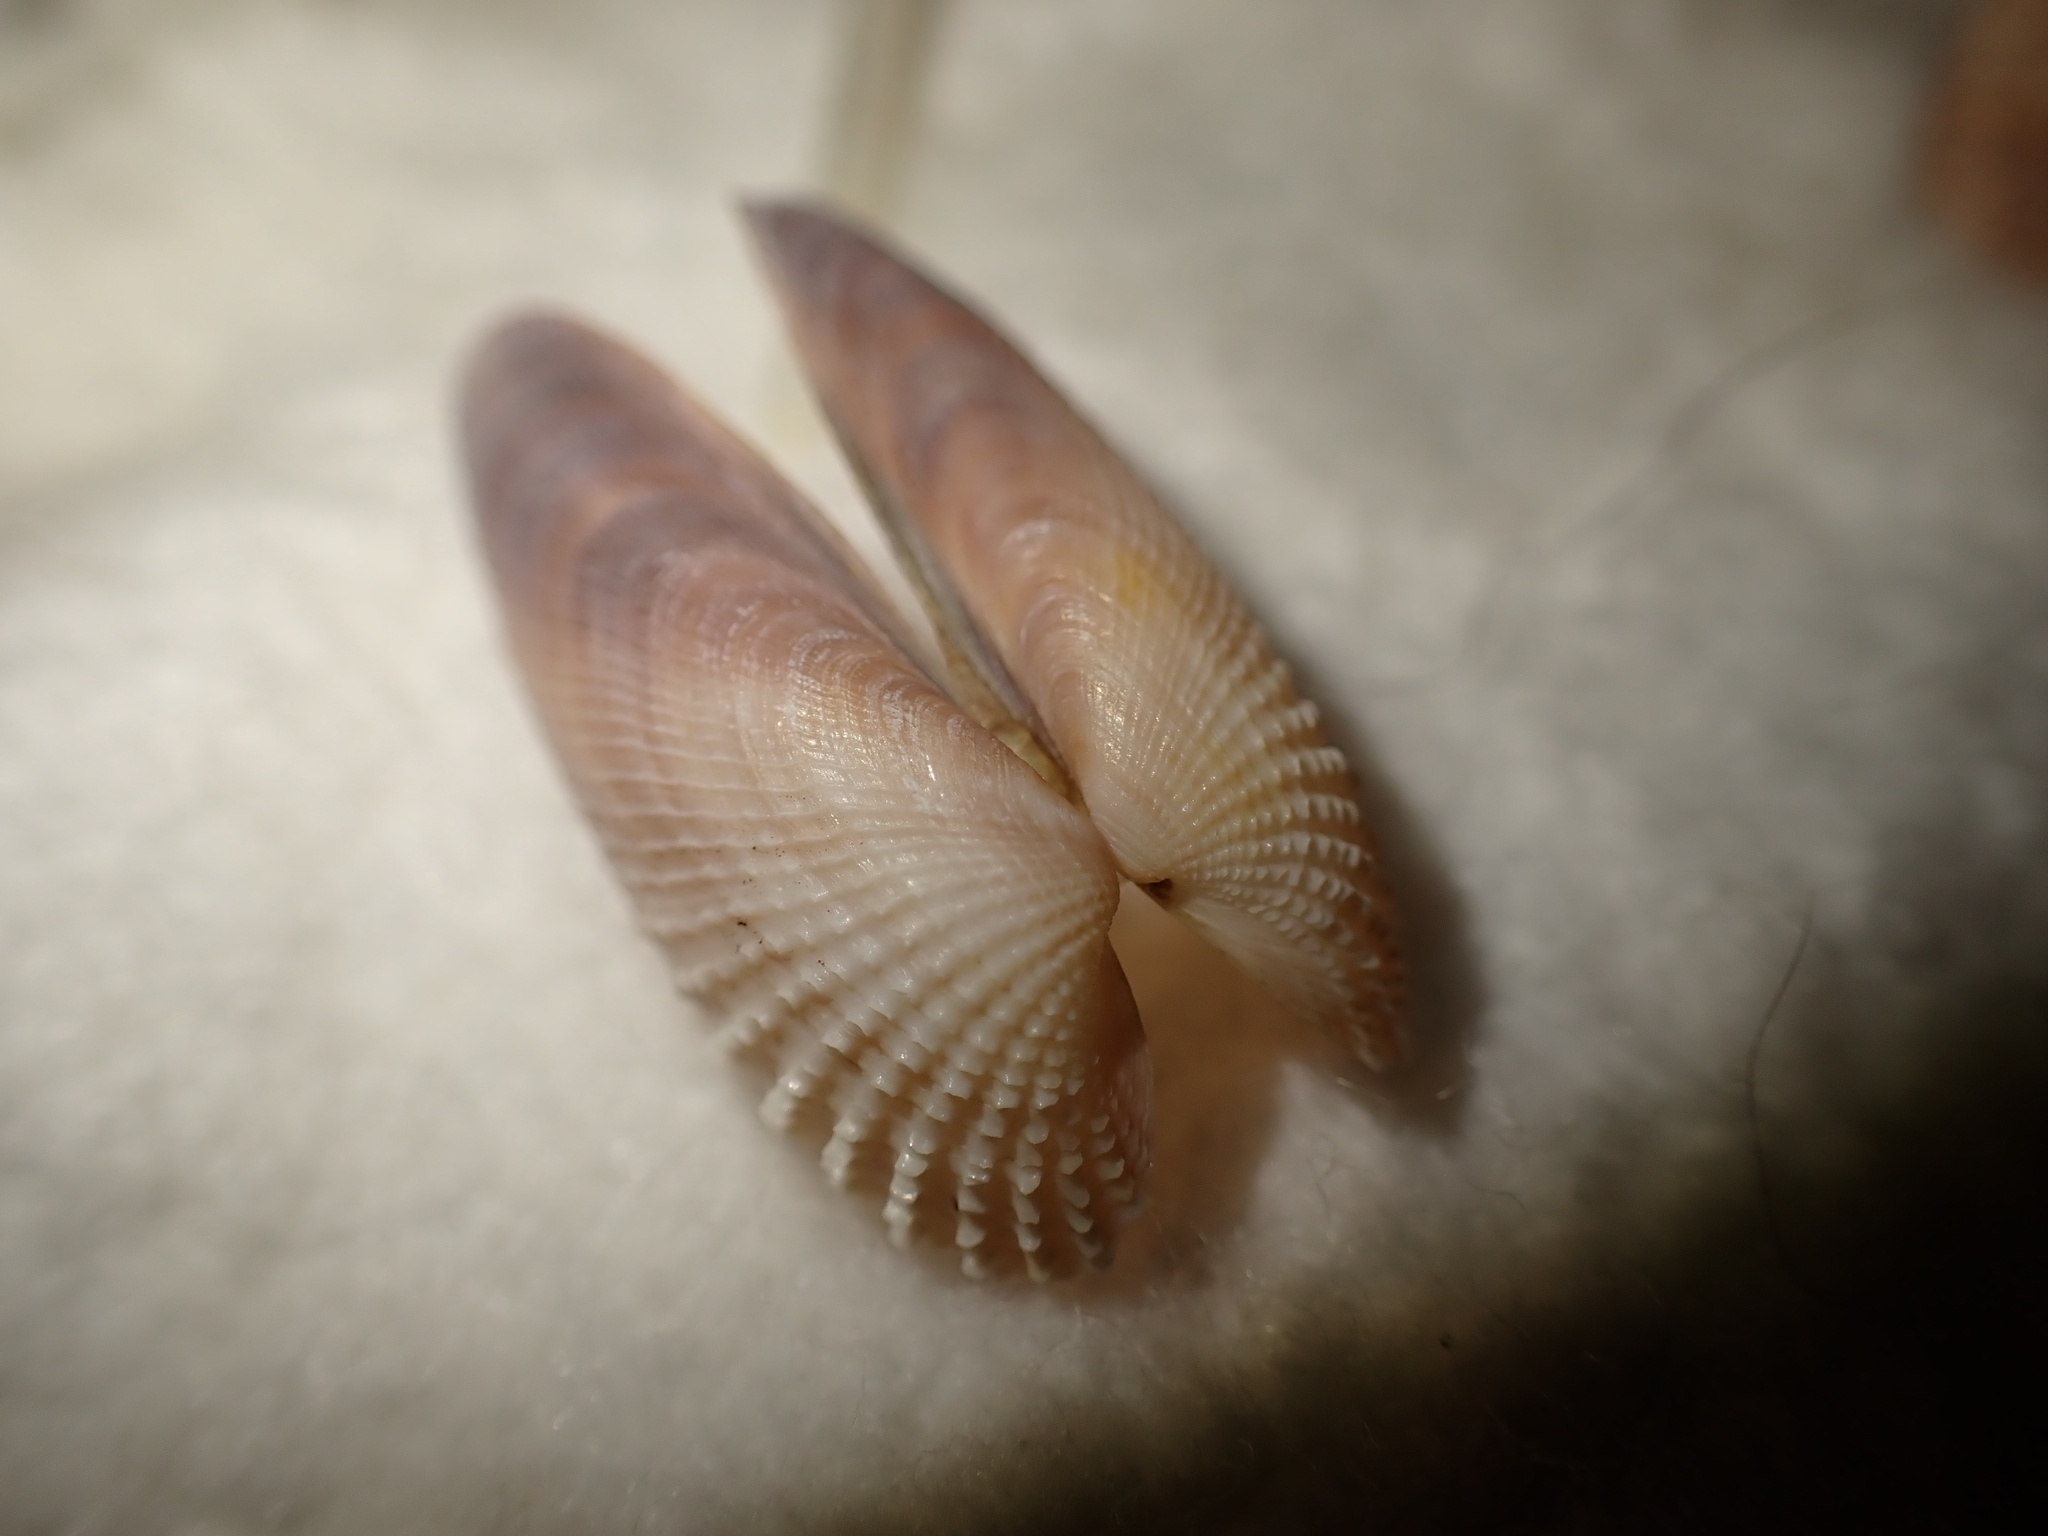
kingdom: Animalia
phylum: Mollusca
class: Bivalvia
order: Venerida
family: Veneridae
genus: Petricolaria
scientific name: Petricolaria pholadiformis
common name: American piddock
